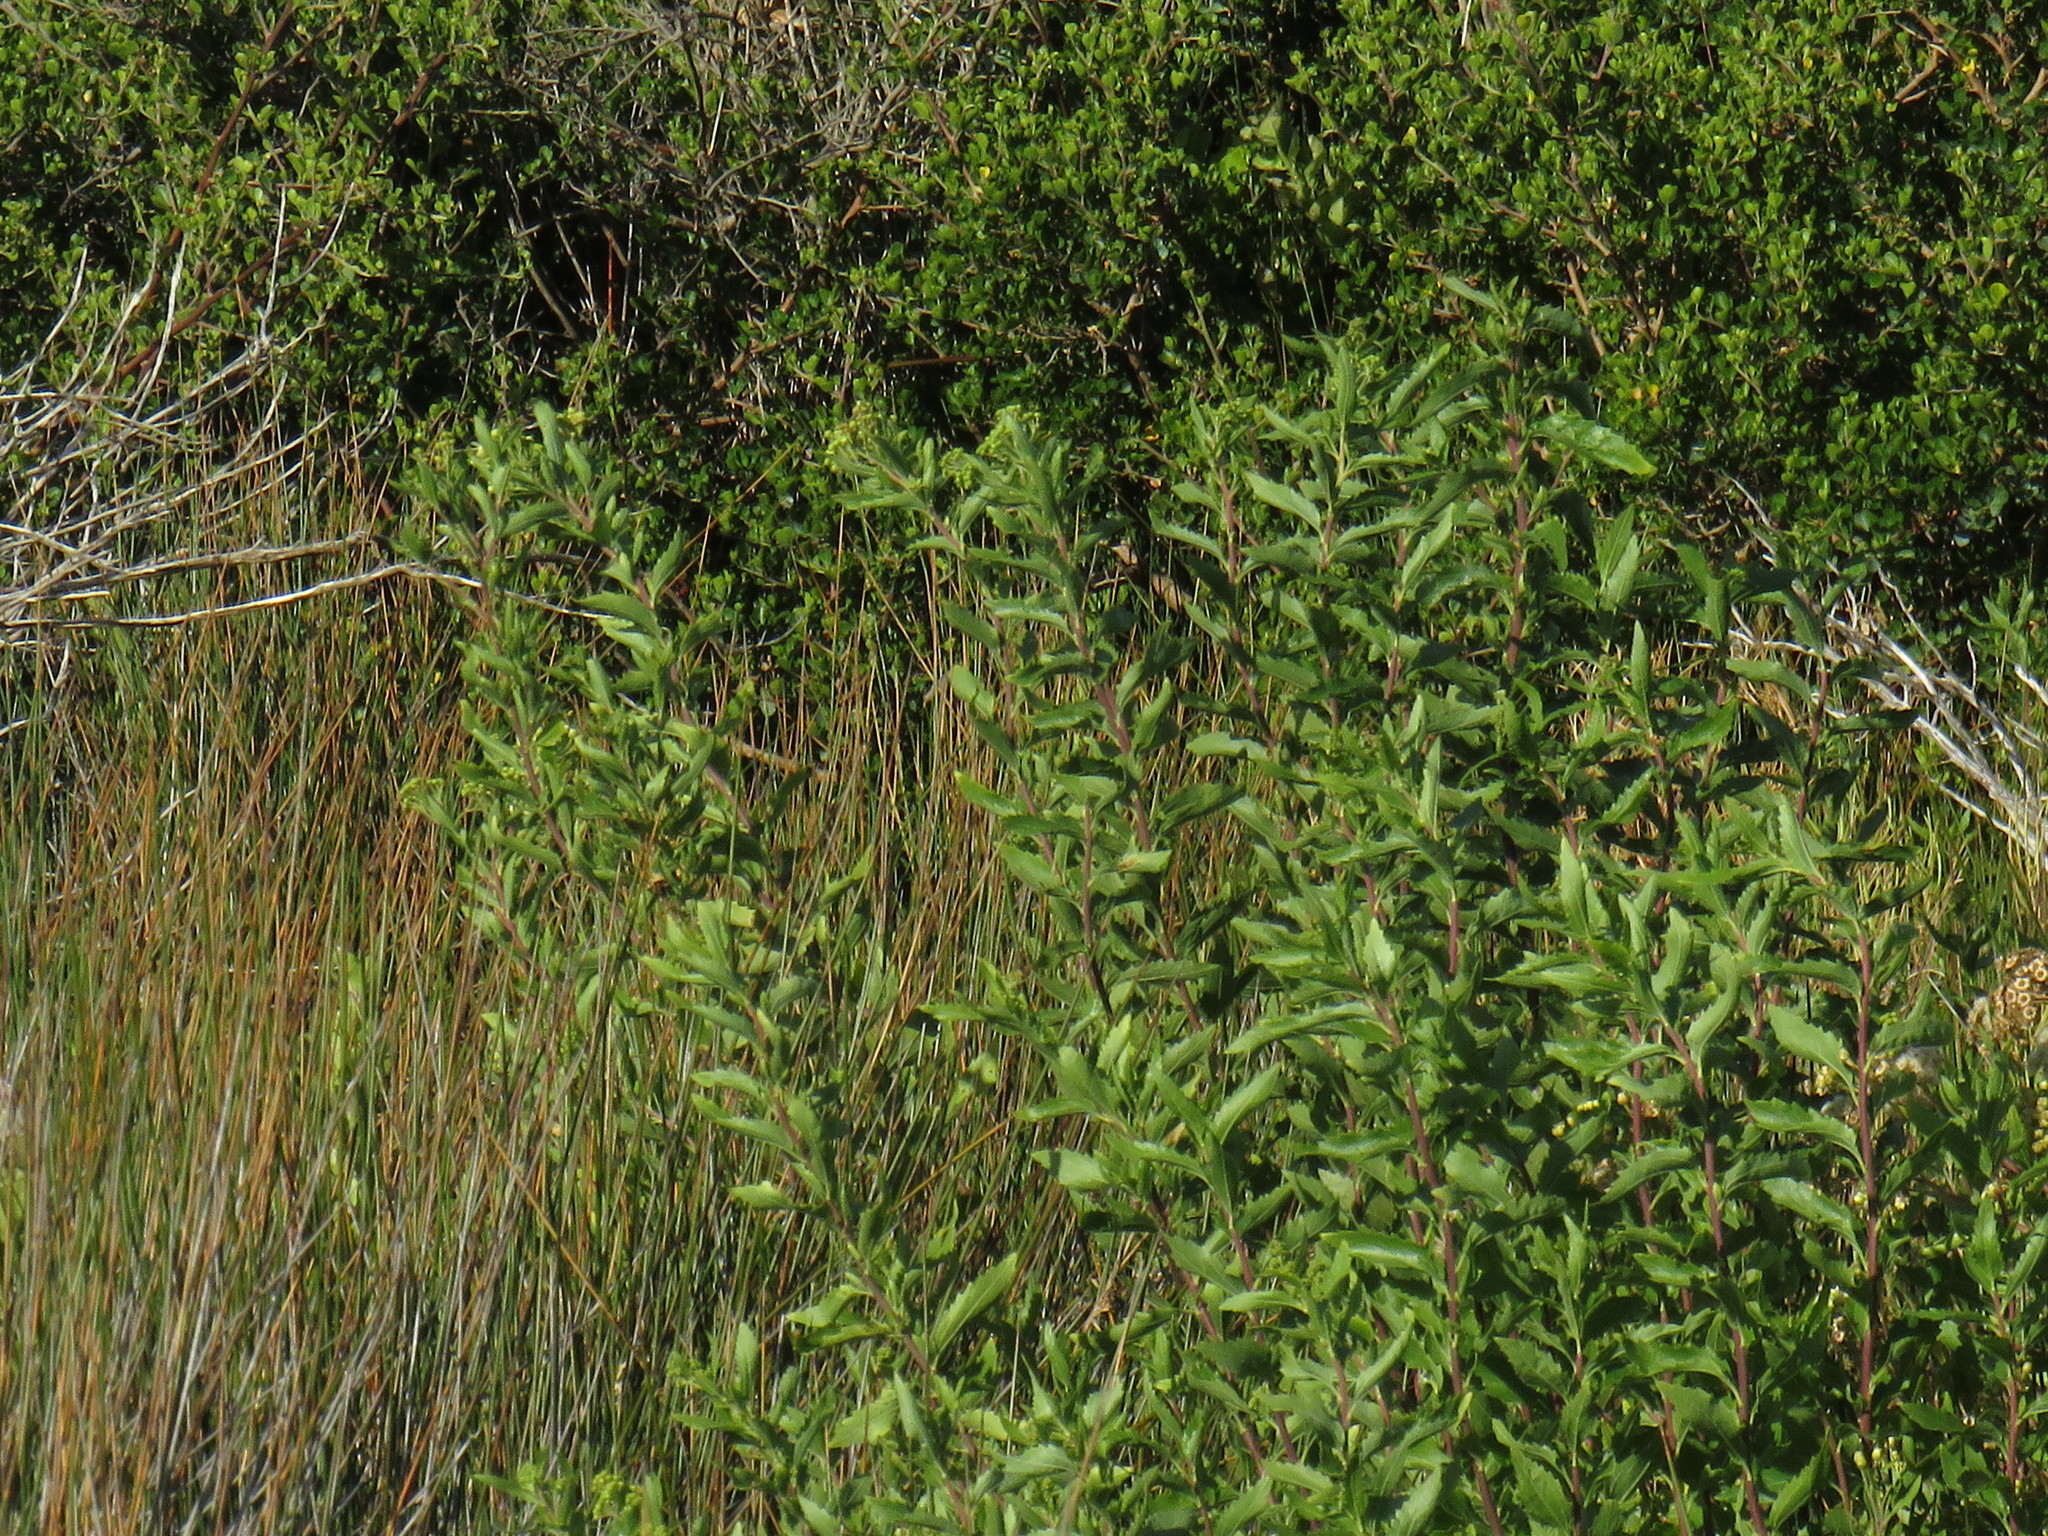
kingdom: Plantae
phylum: Tracheophyta
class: Magnoliopsida
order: Asterales
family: Asteraceae
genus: Nidorella
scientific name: Nidorella ivifolia
